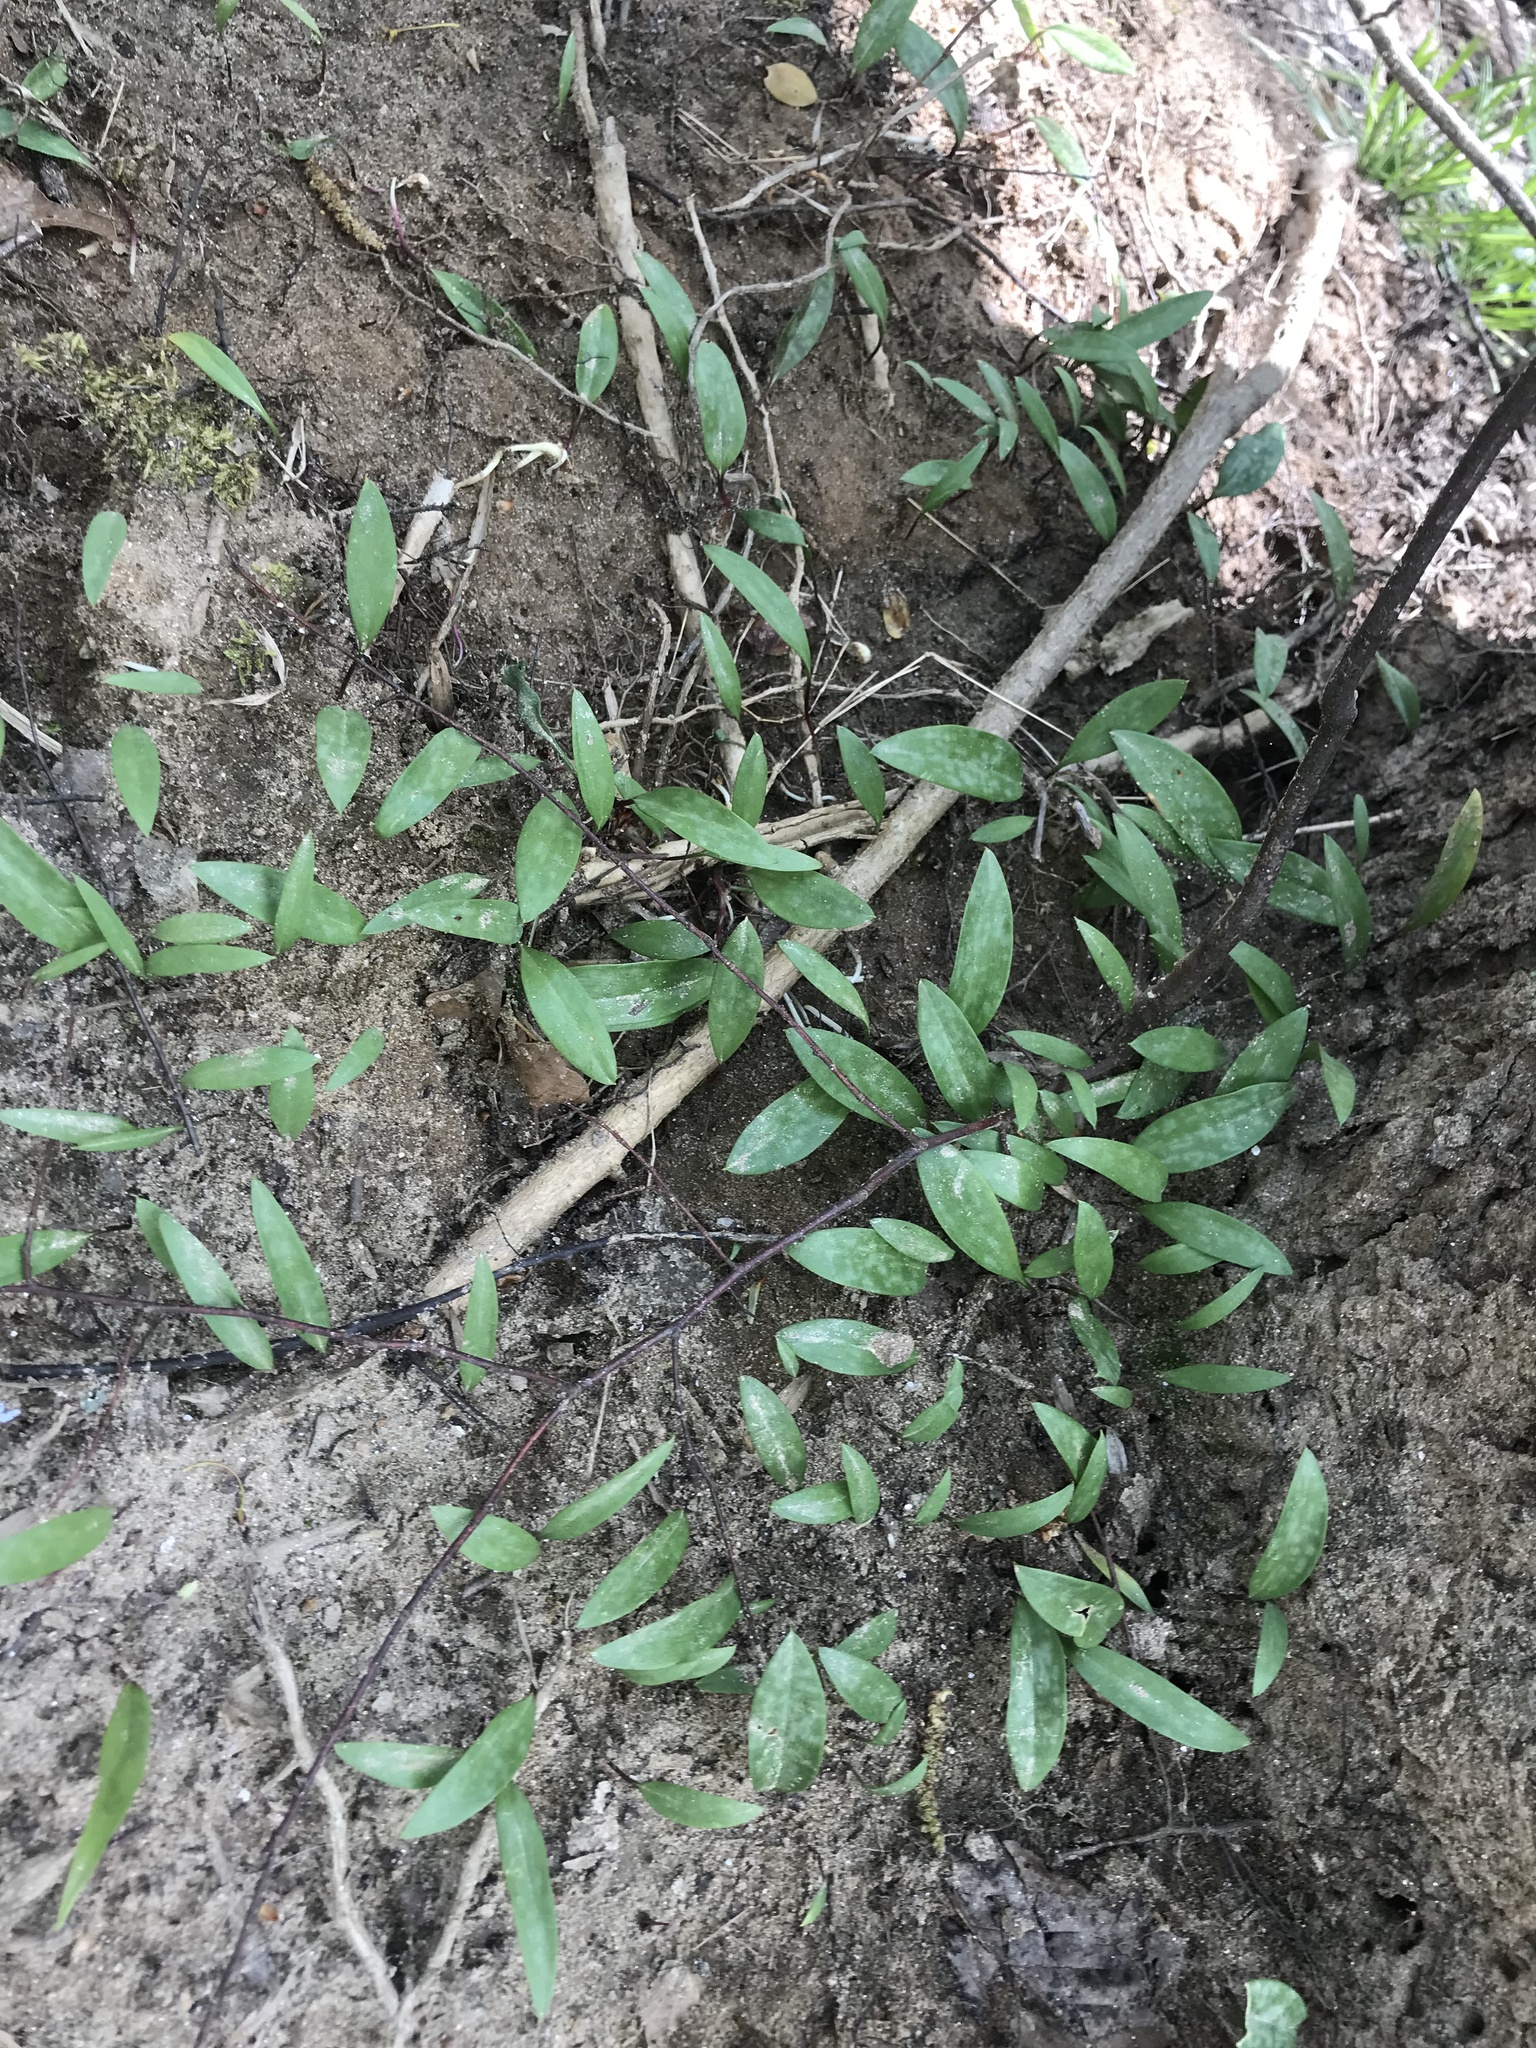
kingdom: Plantae
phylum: Tracheophyta
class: Liliopsida
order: Liliales
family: Liliaceae
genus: Erythronium
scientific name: Erythronium americanum
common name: Yellow adder's-tongue
